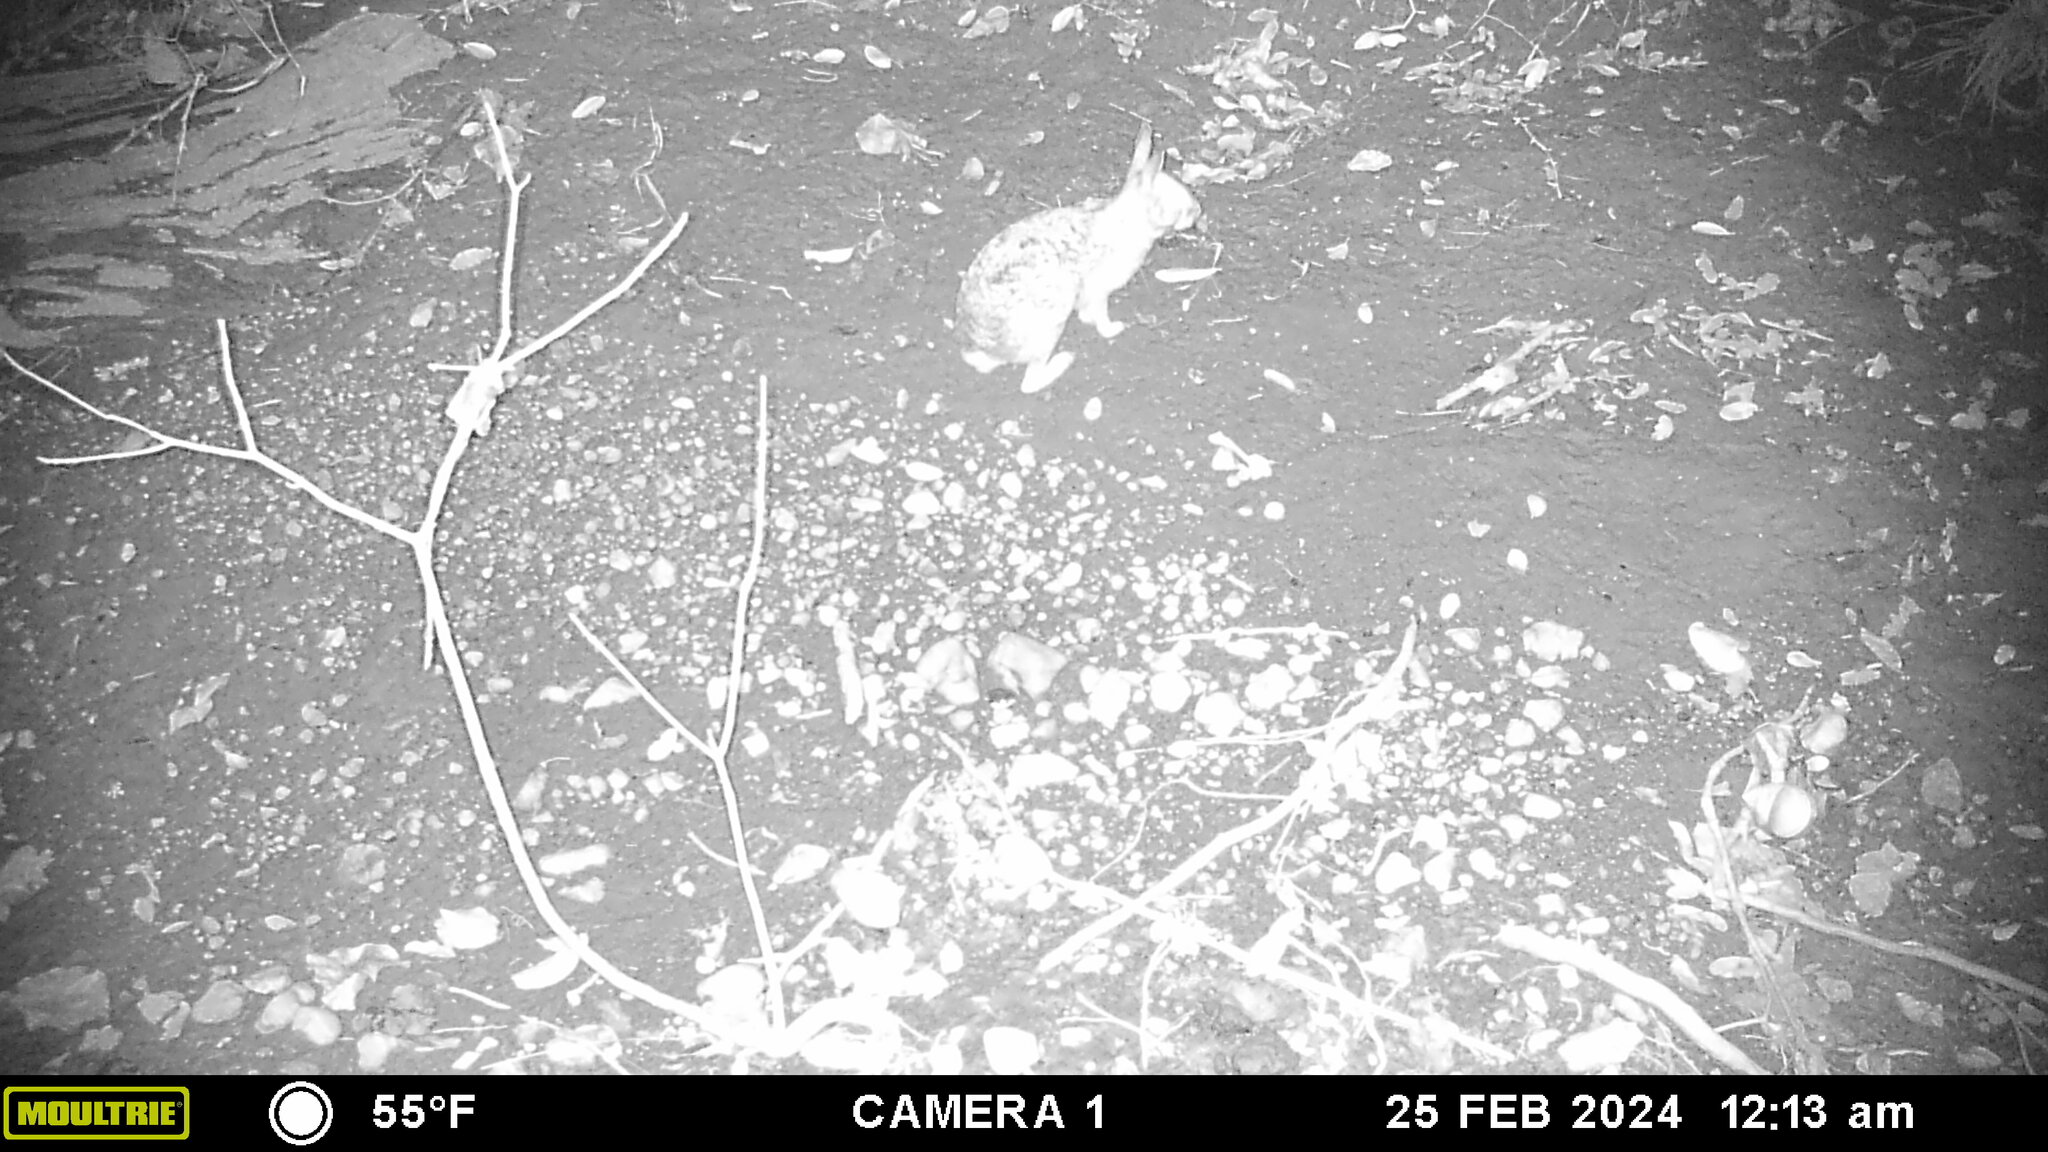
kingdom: Animalia
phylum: Chordata
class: Mammalia
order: Lagomorpha
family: Leporidae
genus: Sylvilagus
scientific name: Sylvilagus floridanus
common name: Eastern cottontail
